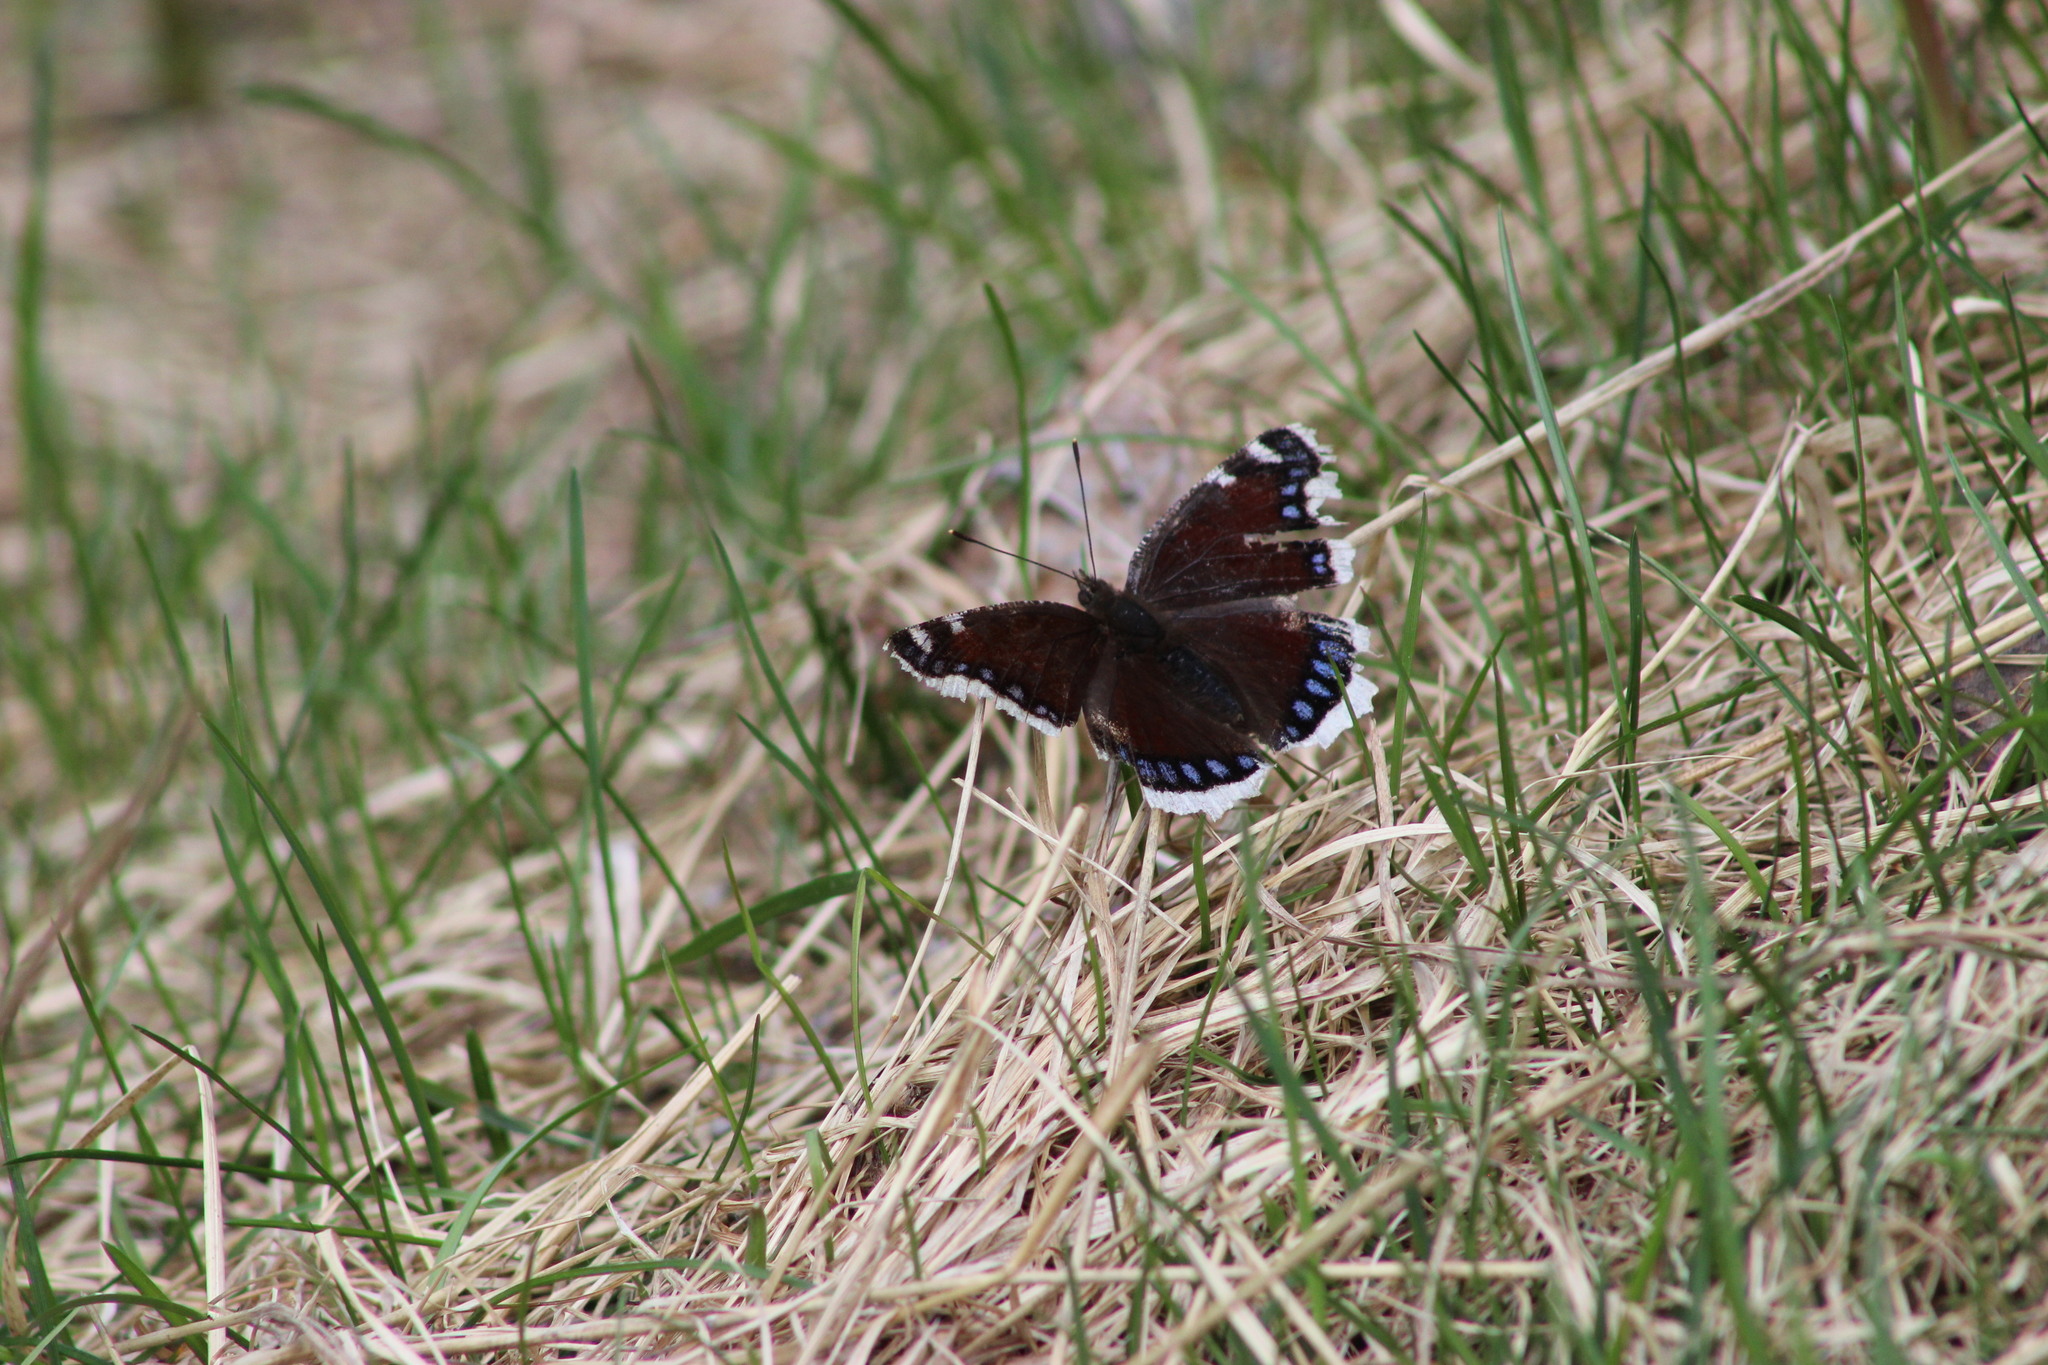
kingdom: Animalia
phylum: Arthropoda
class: Insecta
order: Lepidoptera
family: Nymphalidae
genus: Nymphalis
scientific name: Nymphalis antiopa
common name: Camberwell beauty
